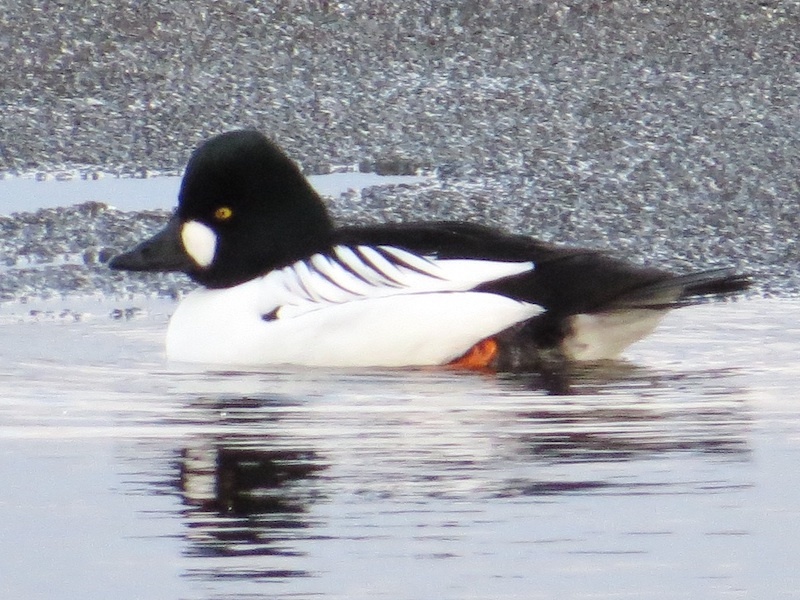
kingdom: Animalia
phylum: Chordata
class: Aves
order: Anseriformes
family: Anatidae
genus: Bucephala
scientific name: Bucephala clangula
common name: Common goldeneye
